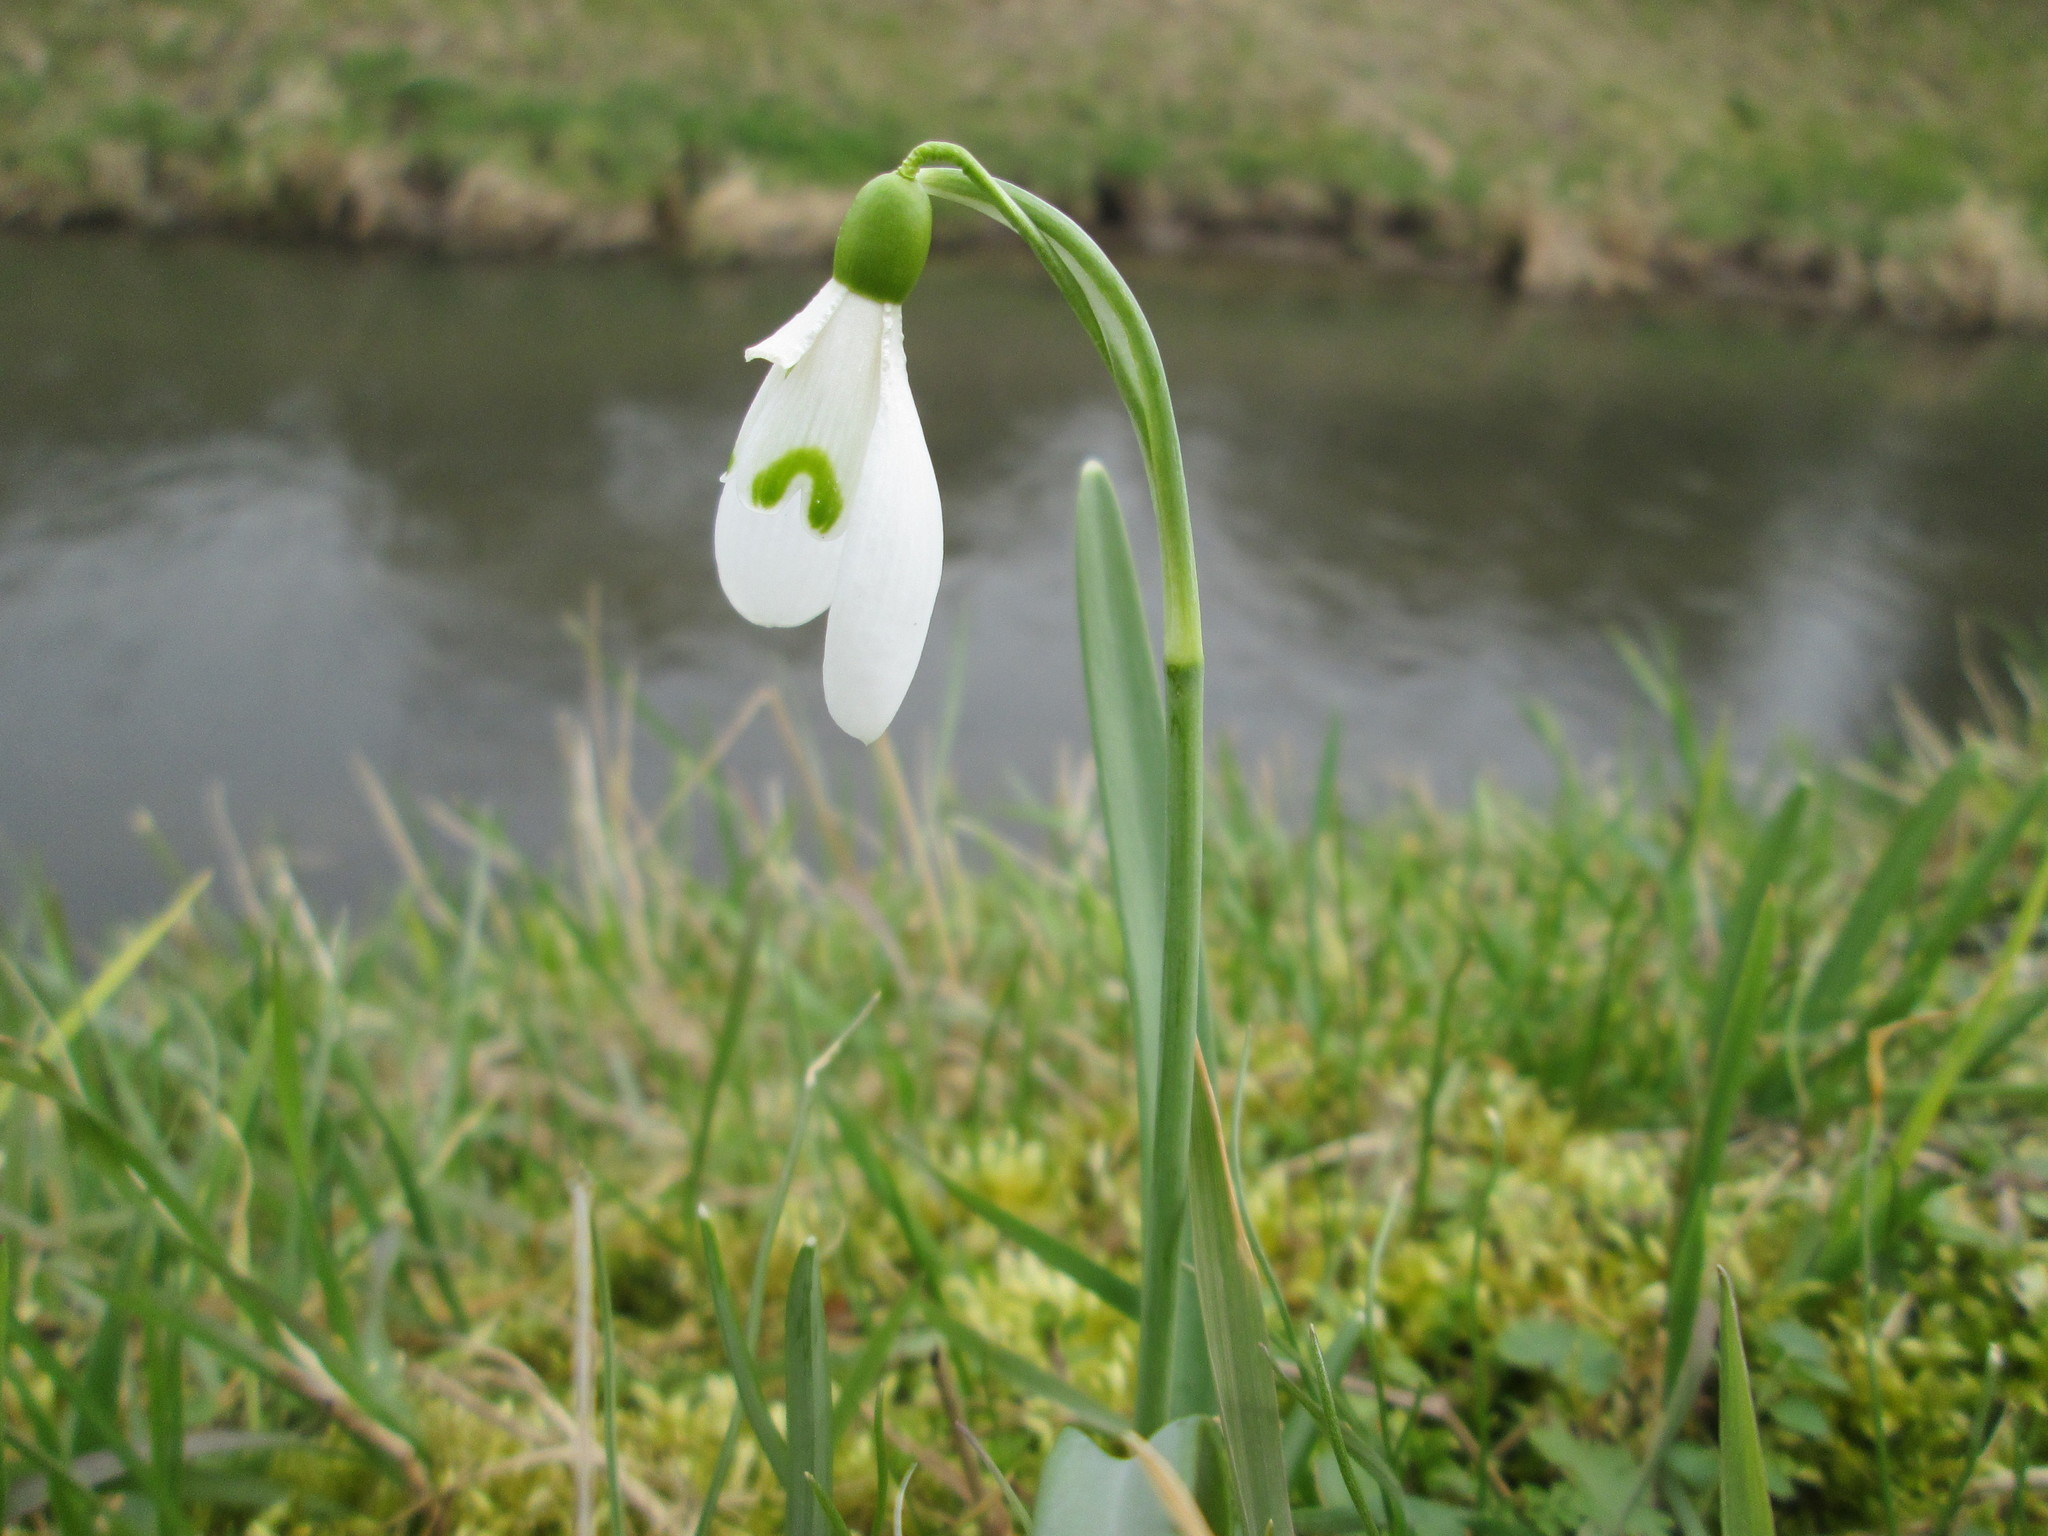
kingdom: Plantae
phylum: Tracheophyta
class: Liliopsida
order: Asparagales
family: Amaryllidaceae
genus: Galanthus
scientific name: Galanthus nivalis
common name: Snowdrop
